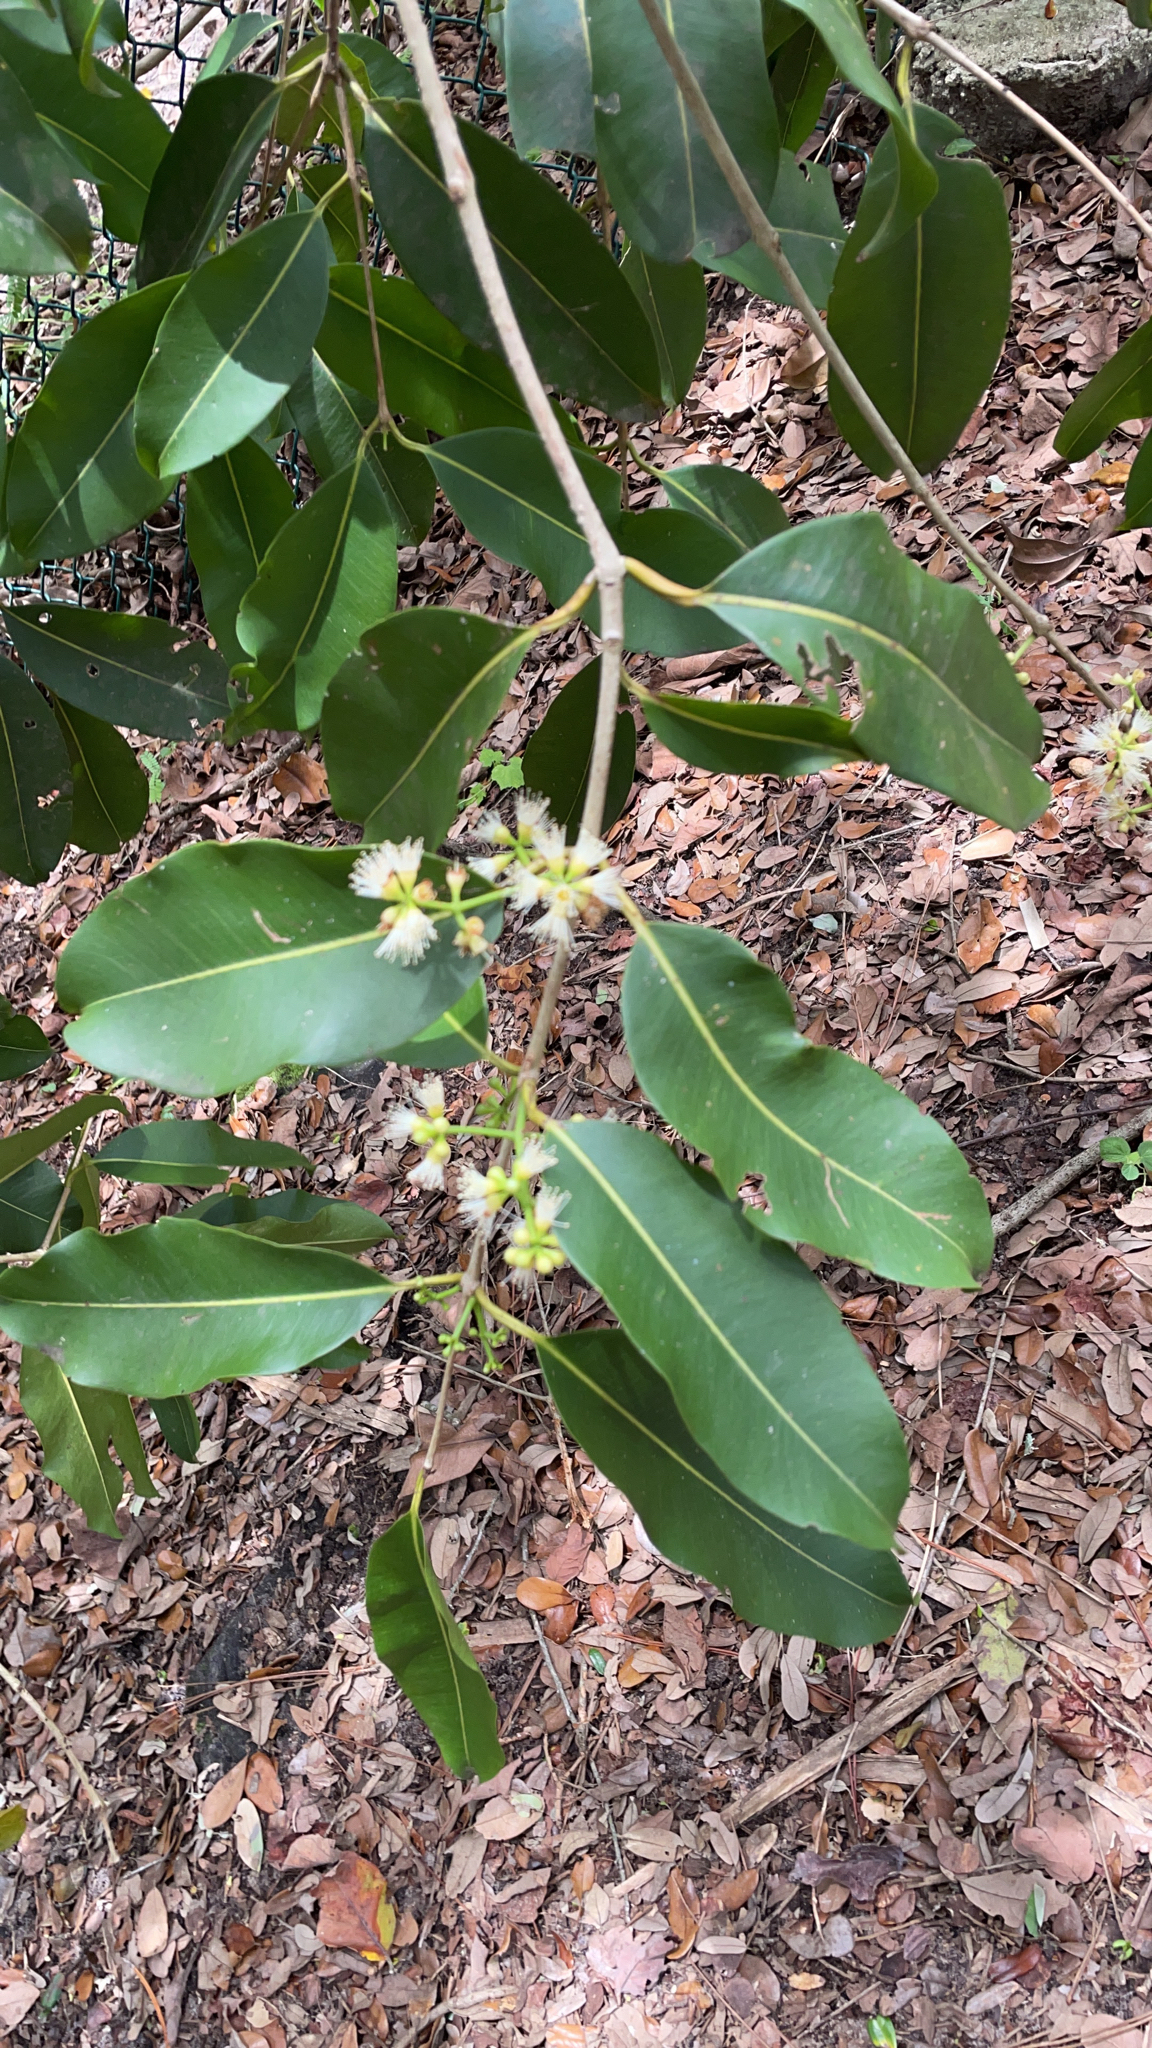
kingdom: Plantae
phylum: Tracheophyta
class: Magnoliopsida
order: Myrtales
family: Myrtaceae
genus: Syzygium
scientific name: Syzygium cumini
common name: Java plum
